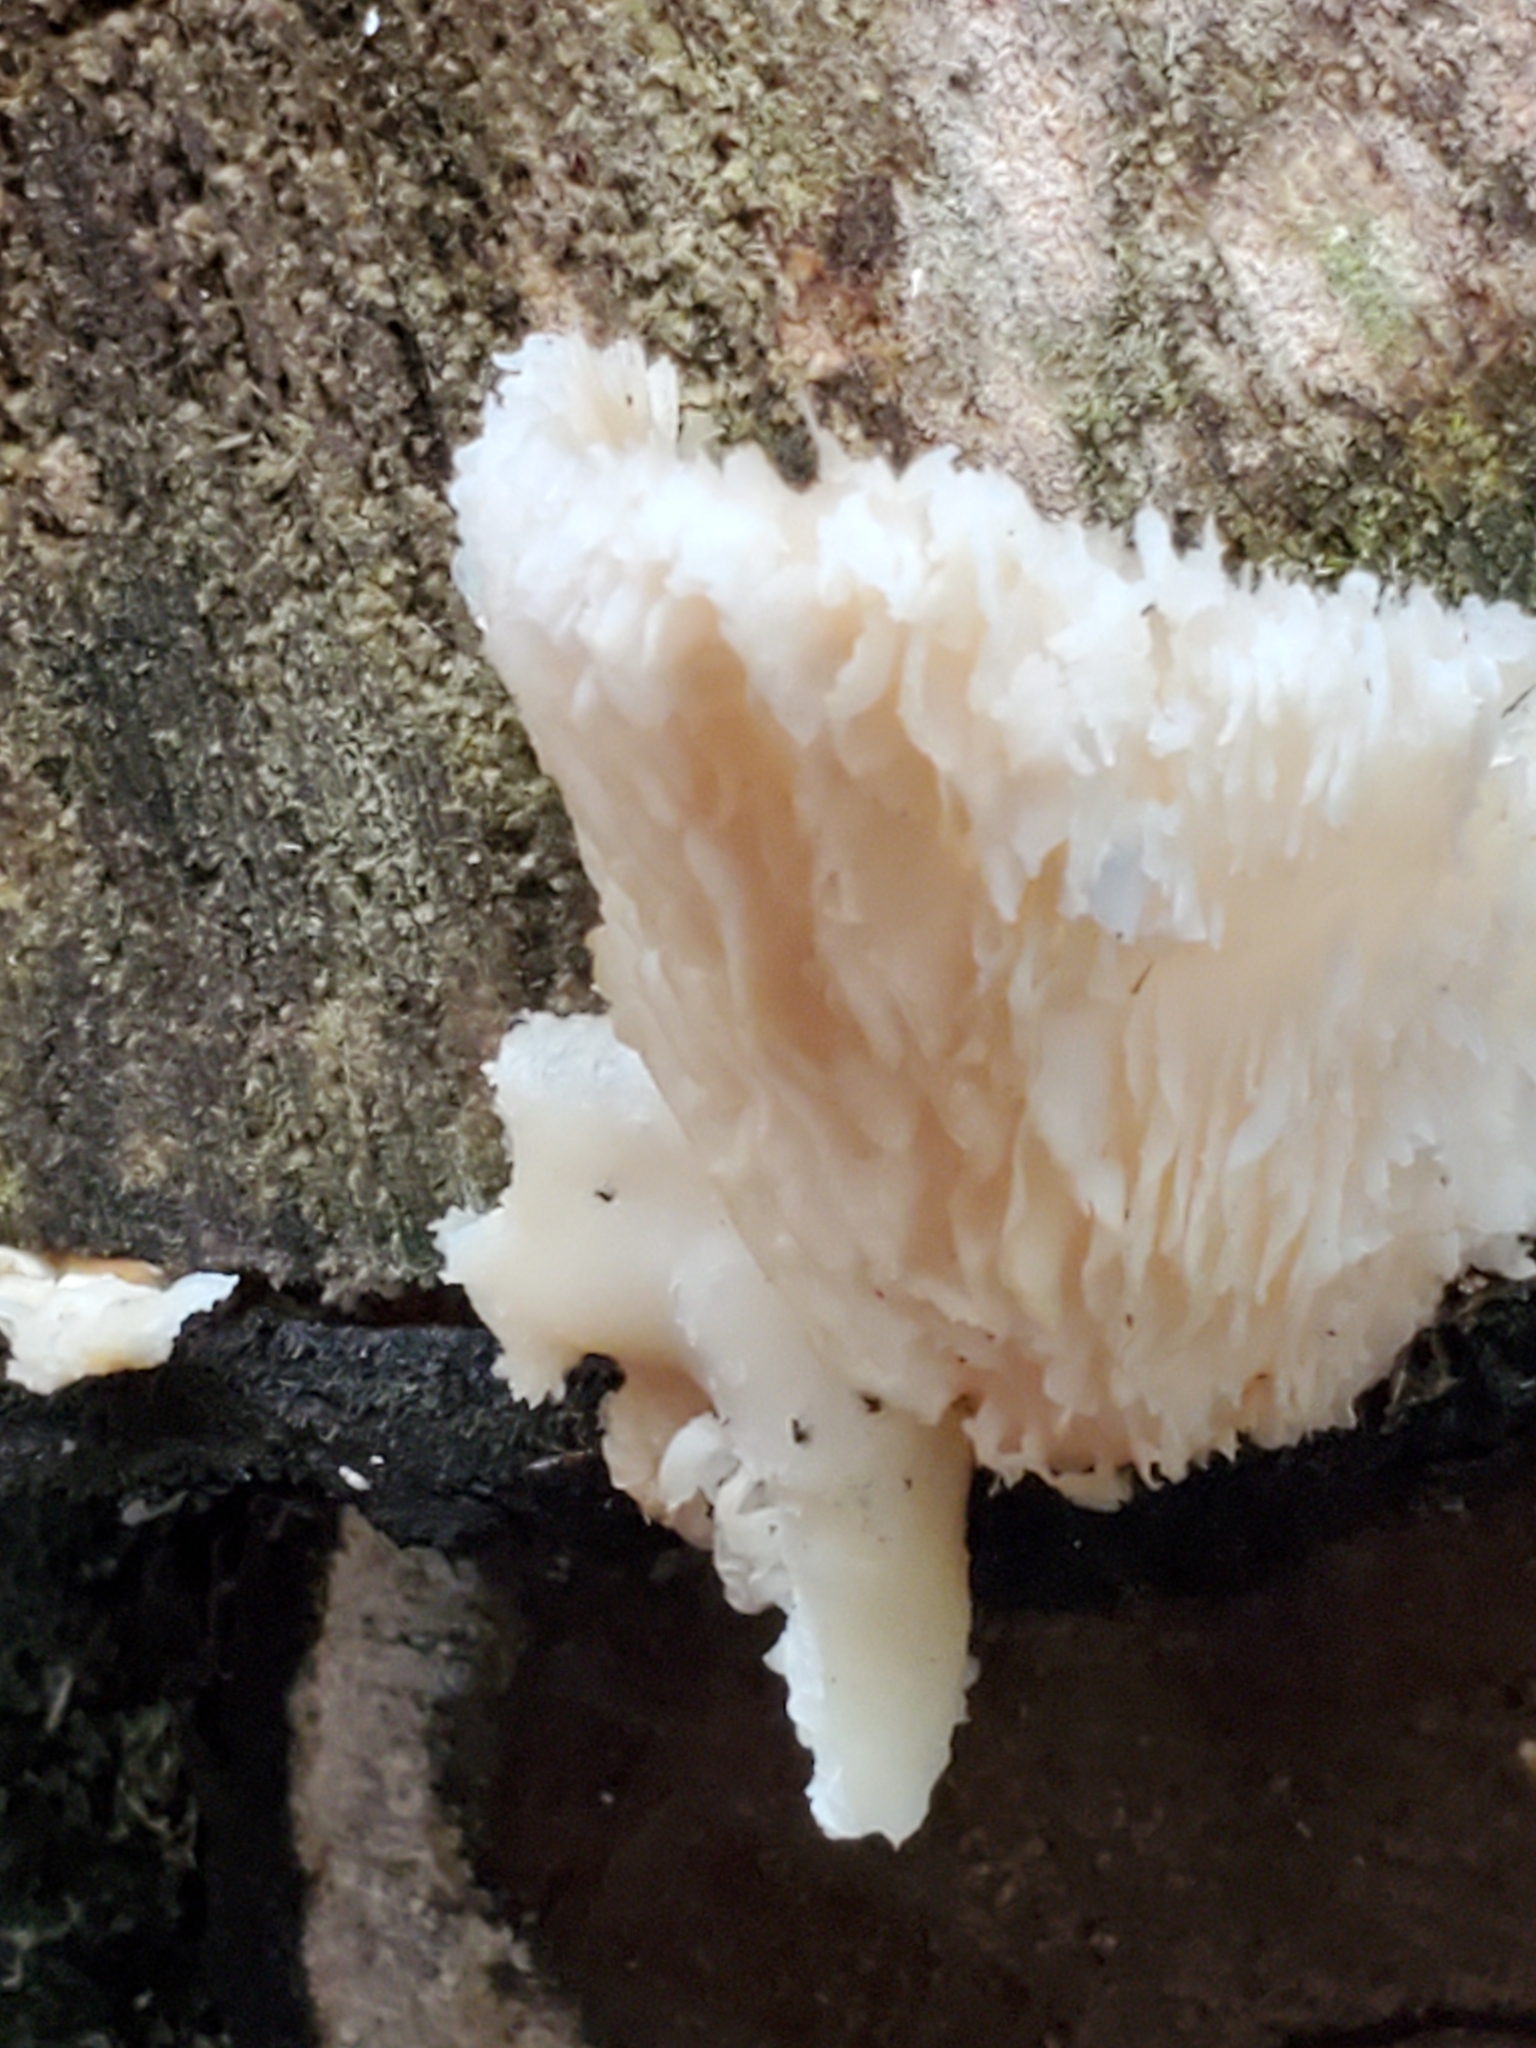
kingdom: Fungi
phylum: Basidiomycota
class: Agaricomycetes
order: Agaricales
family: Pleurotaceae
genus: Pleurotus
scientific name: Pleurotus pulmonarius
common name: Pale oyster
